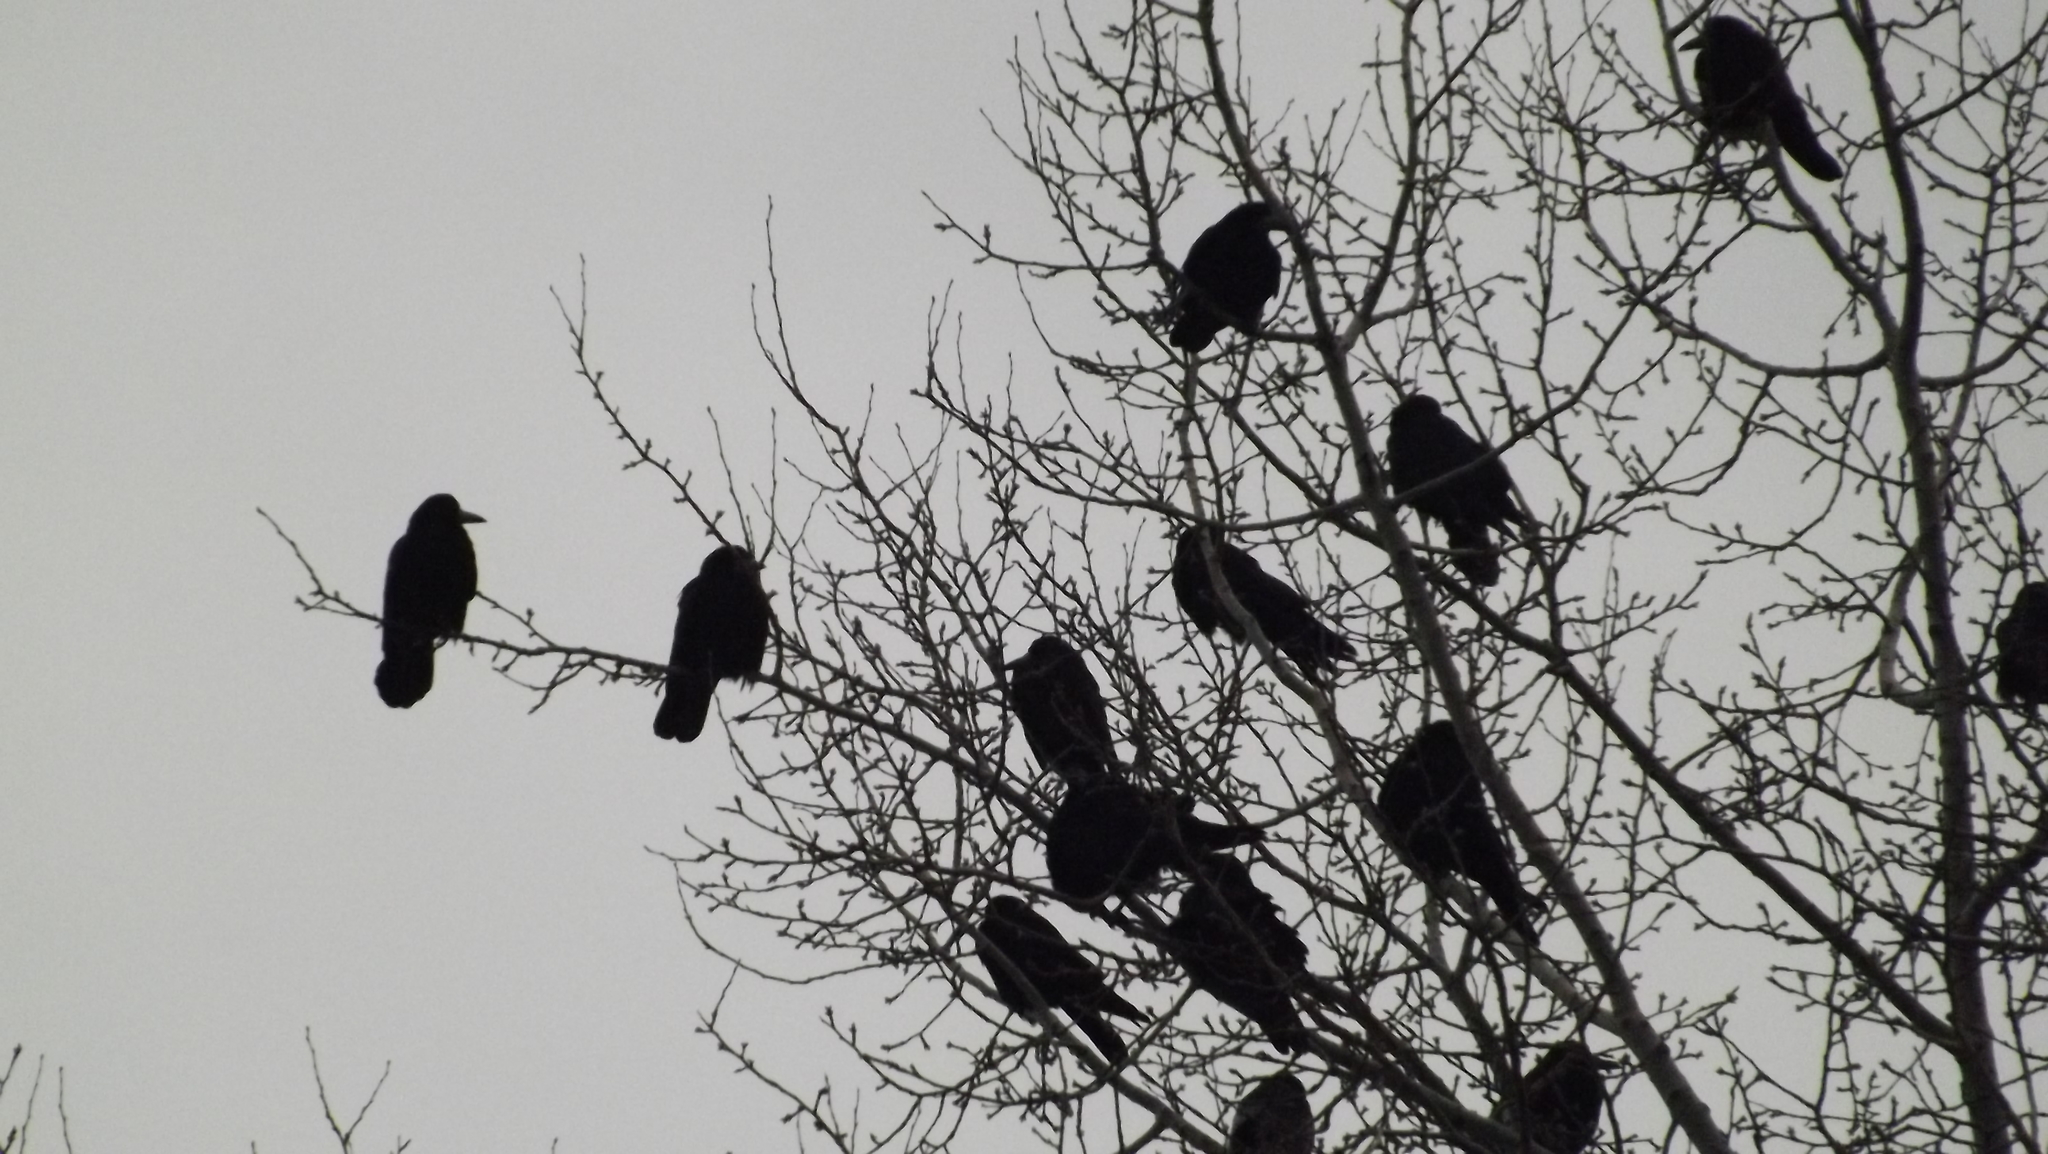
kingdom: Animalia
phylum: Chordata
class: Aves
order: Passeriformes
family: Corvidae
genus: Corvus
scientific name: Corvus frugilegus
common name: Rook
